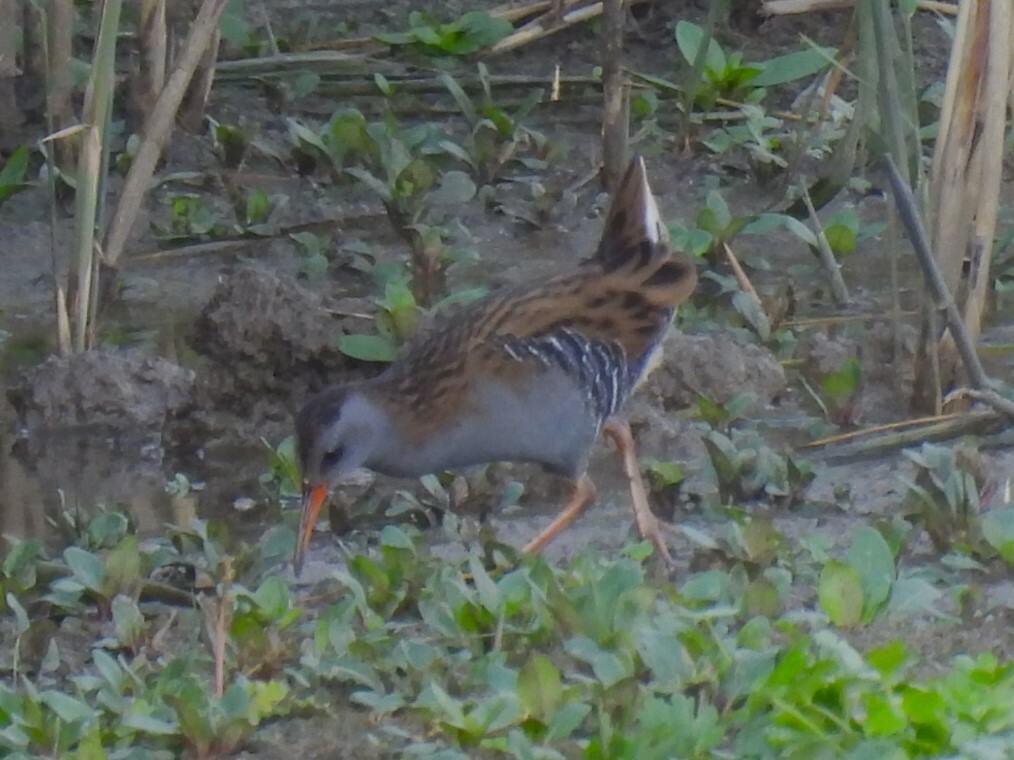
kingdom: Animalia
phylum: Chordata
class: Aves
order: Gruiformes
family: Rallidae
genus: Rallus
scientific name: Rallus aquaticus
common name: Water rail
